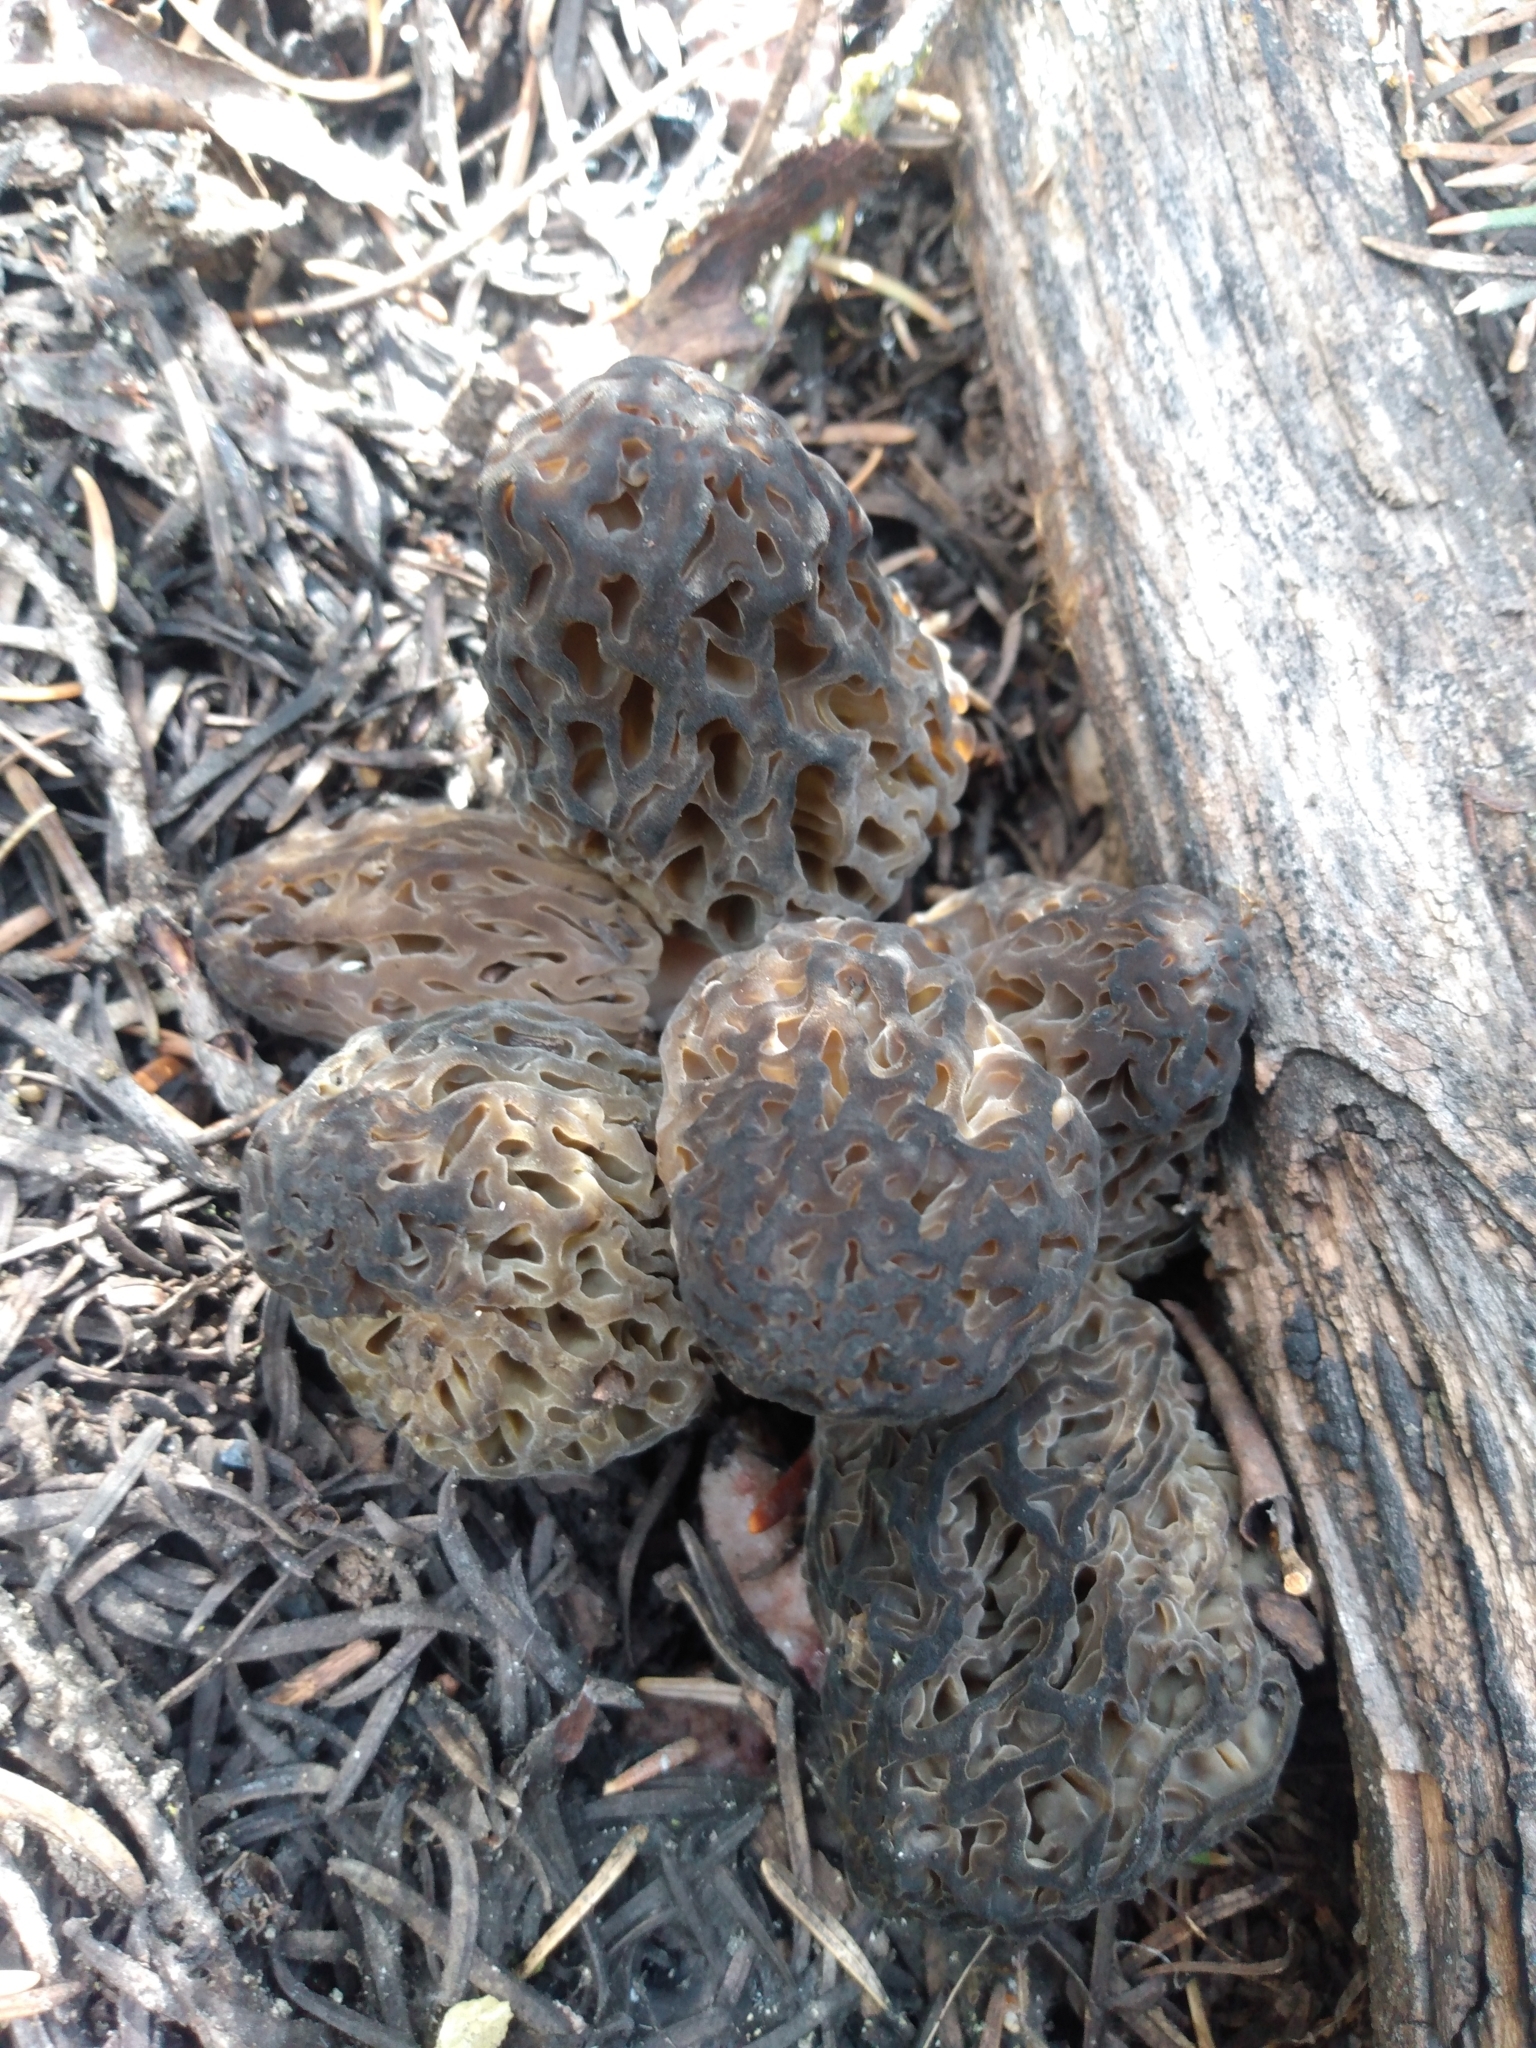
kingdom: Fungi
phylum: Ascomycota
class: Pezizomycetes
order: Pezizales
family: Morchellaceae
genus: Morchella
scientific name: Morchella snyderi
